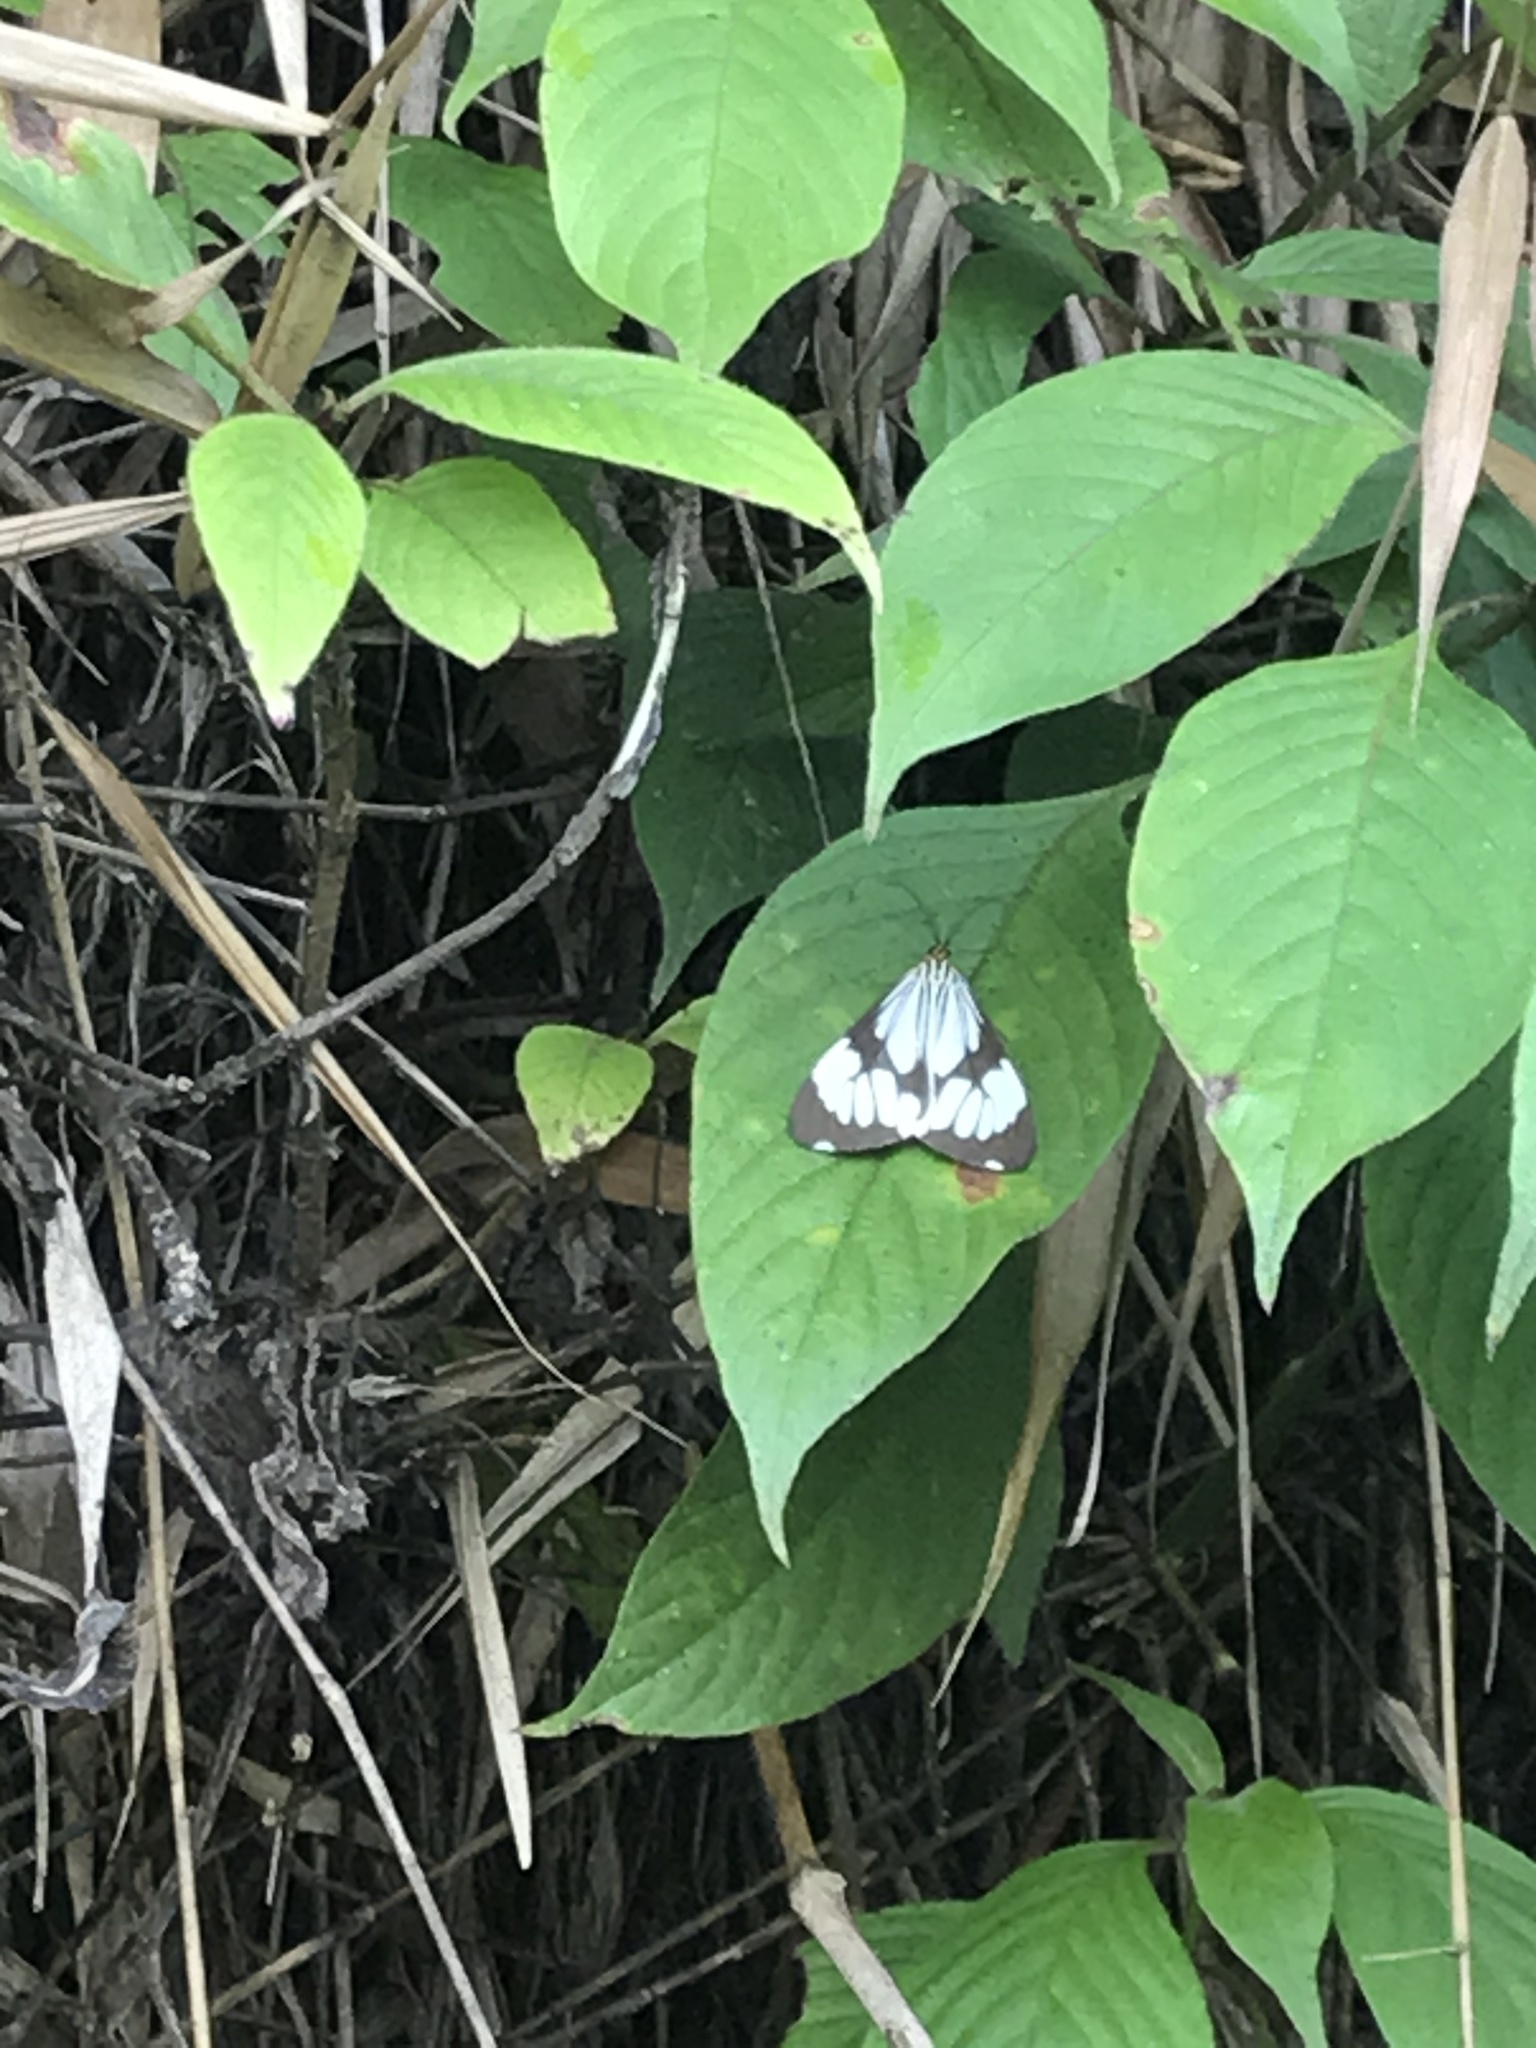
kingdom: Animalia
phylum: Arthropoda
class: Insecta
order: Lepidoptera
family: Erebidae
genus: Nyctemera
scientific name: Nyctemera coleta
